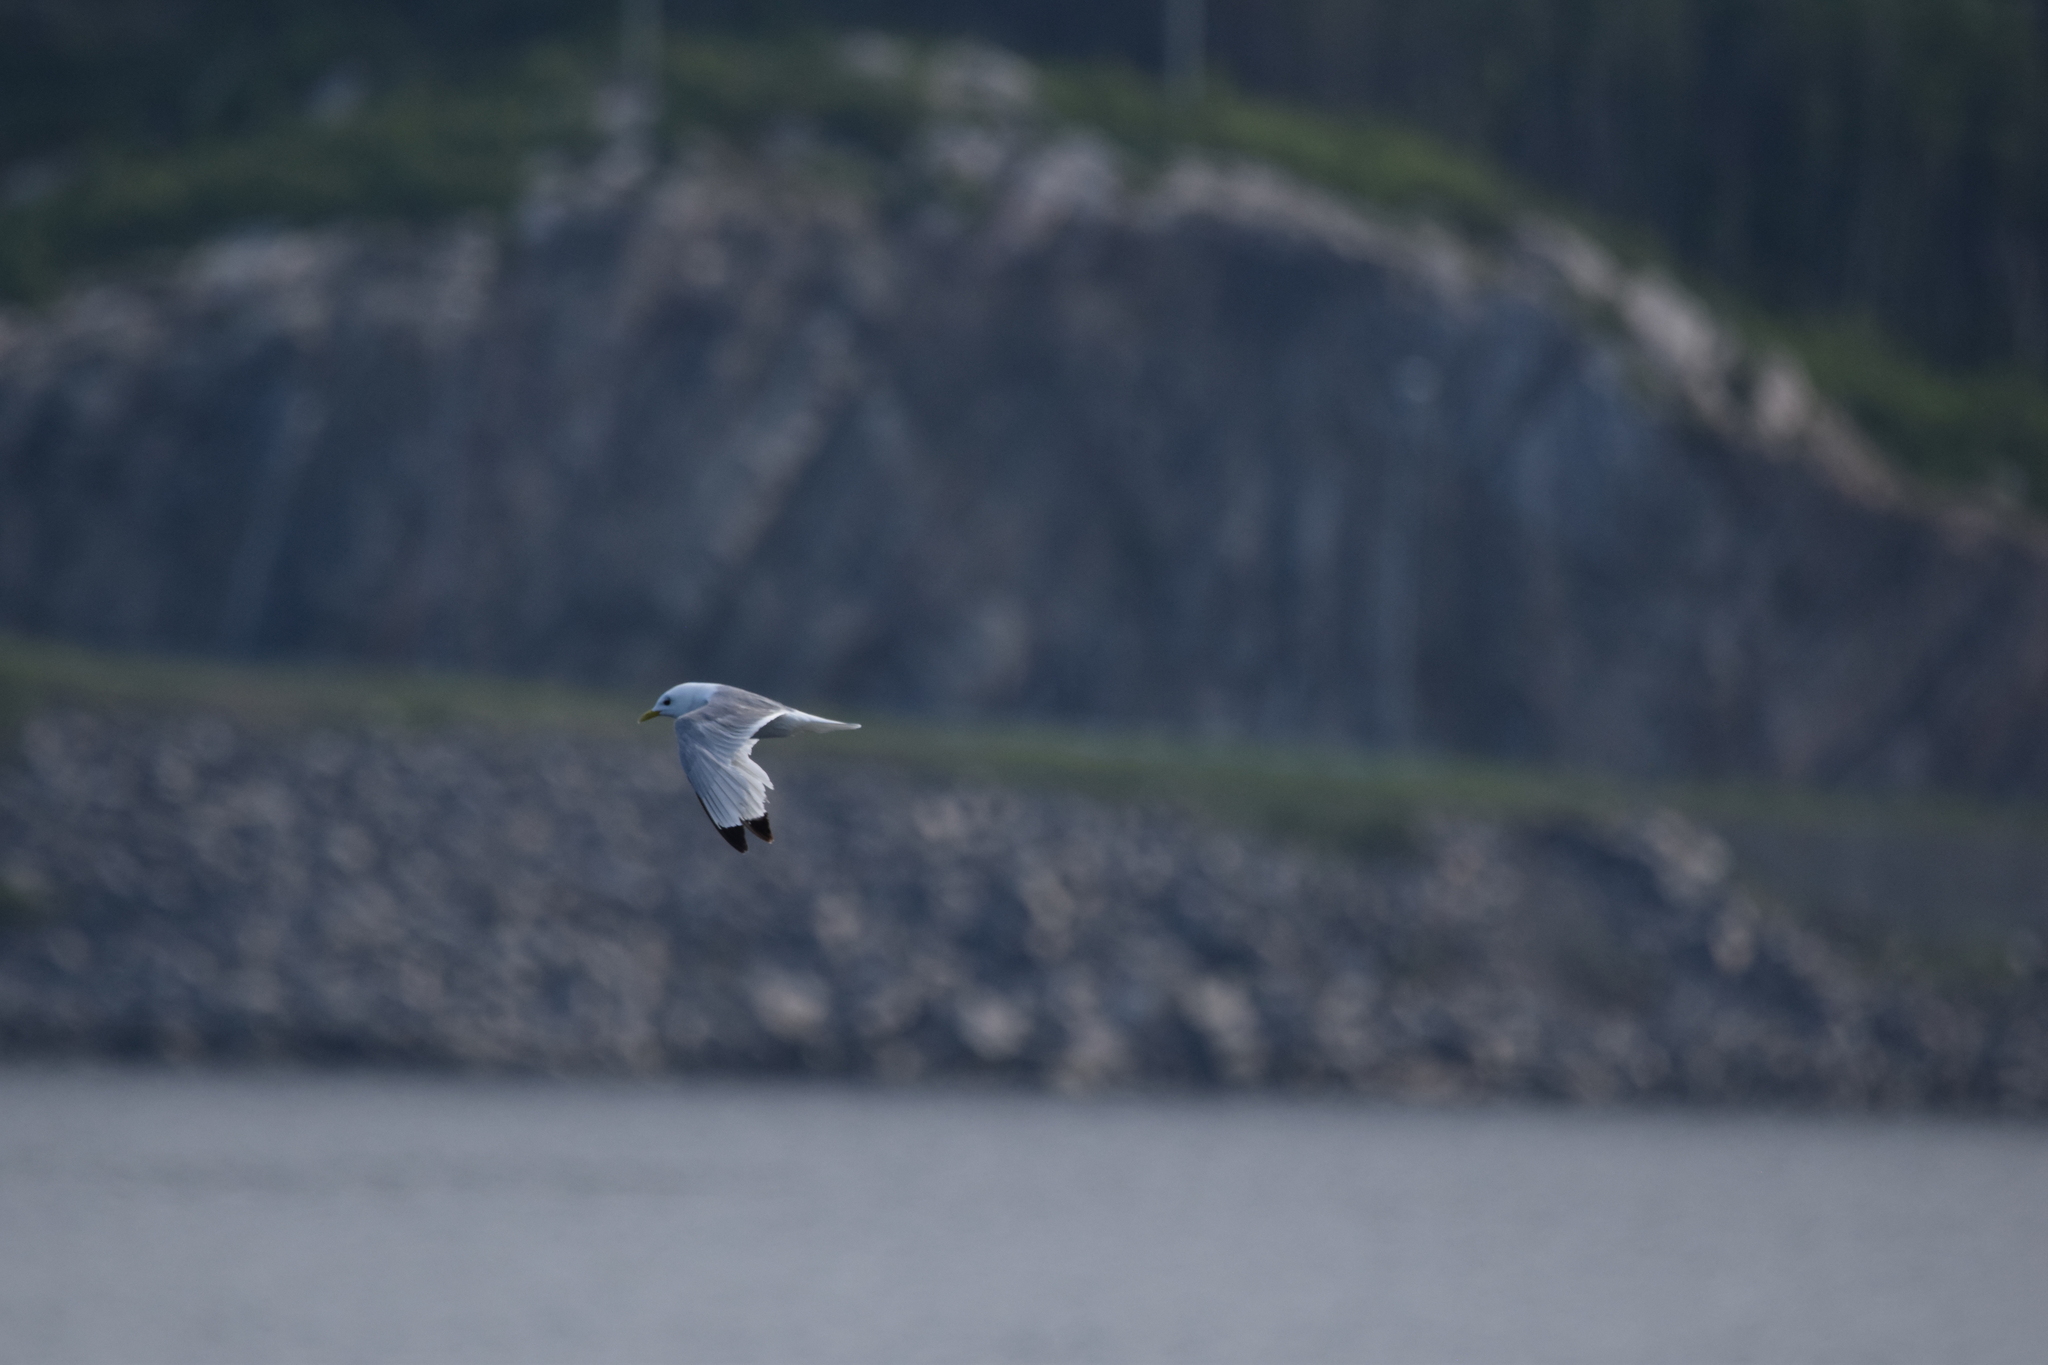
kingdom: Animalia
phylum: Chordata
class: Aves
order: Charadriiformes
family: Laridae
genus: Rissa
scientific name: Rissa tridactyla
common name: Black-legged kittiwake
